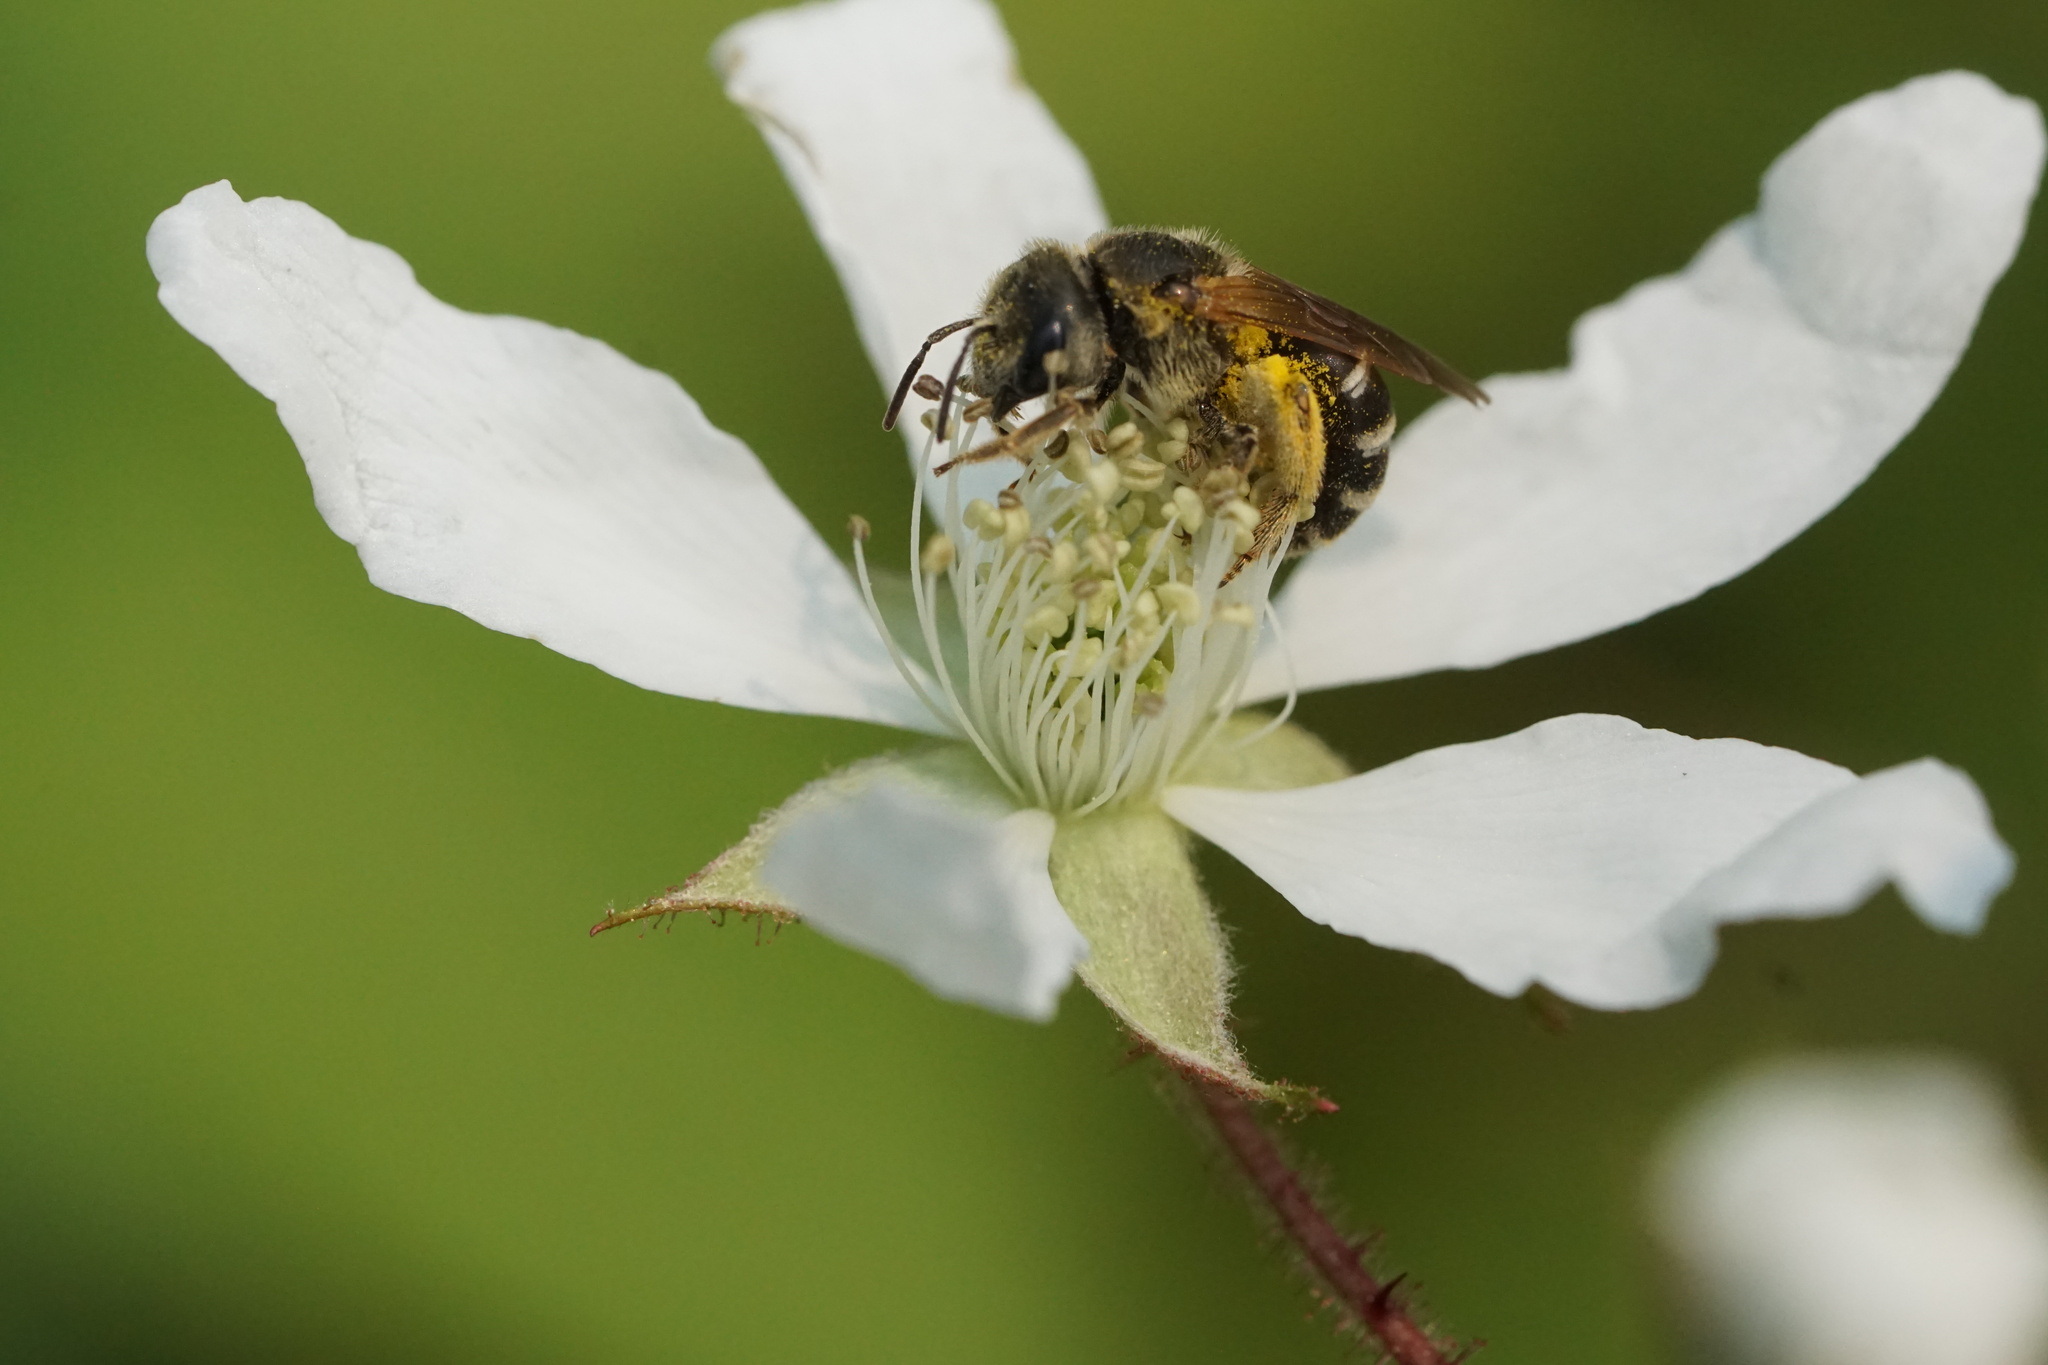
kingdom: Animalia
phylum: Arthropoda
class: Insecta
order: Hymenoptera
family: Halictidae
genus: Halictus
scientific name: Halictus ligatus
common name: Ligated furrow bee
